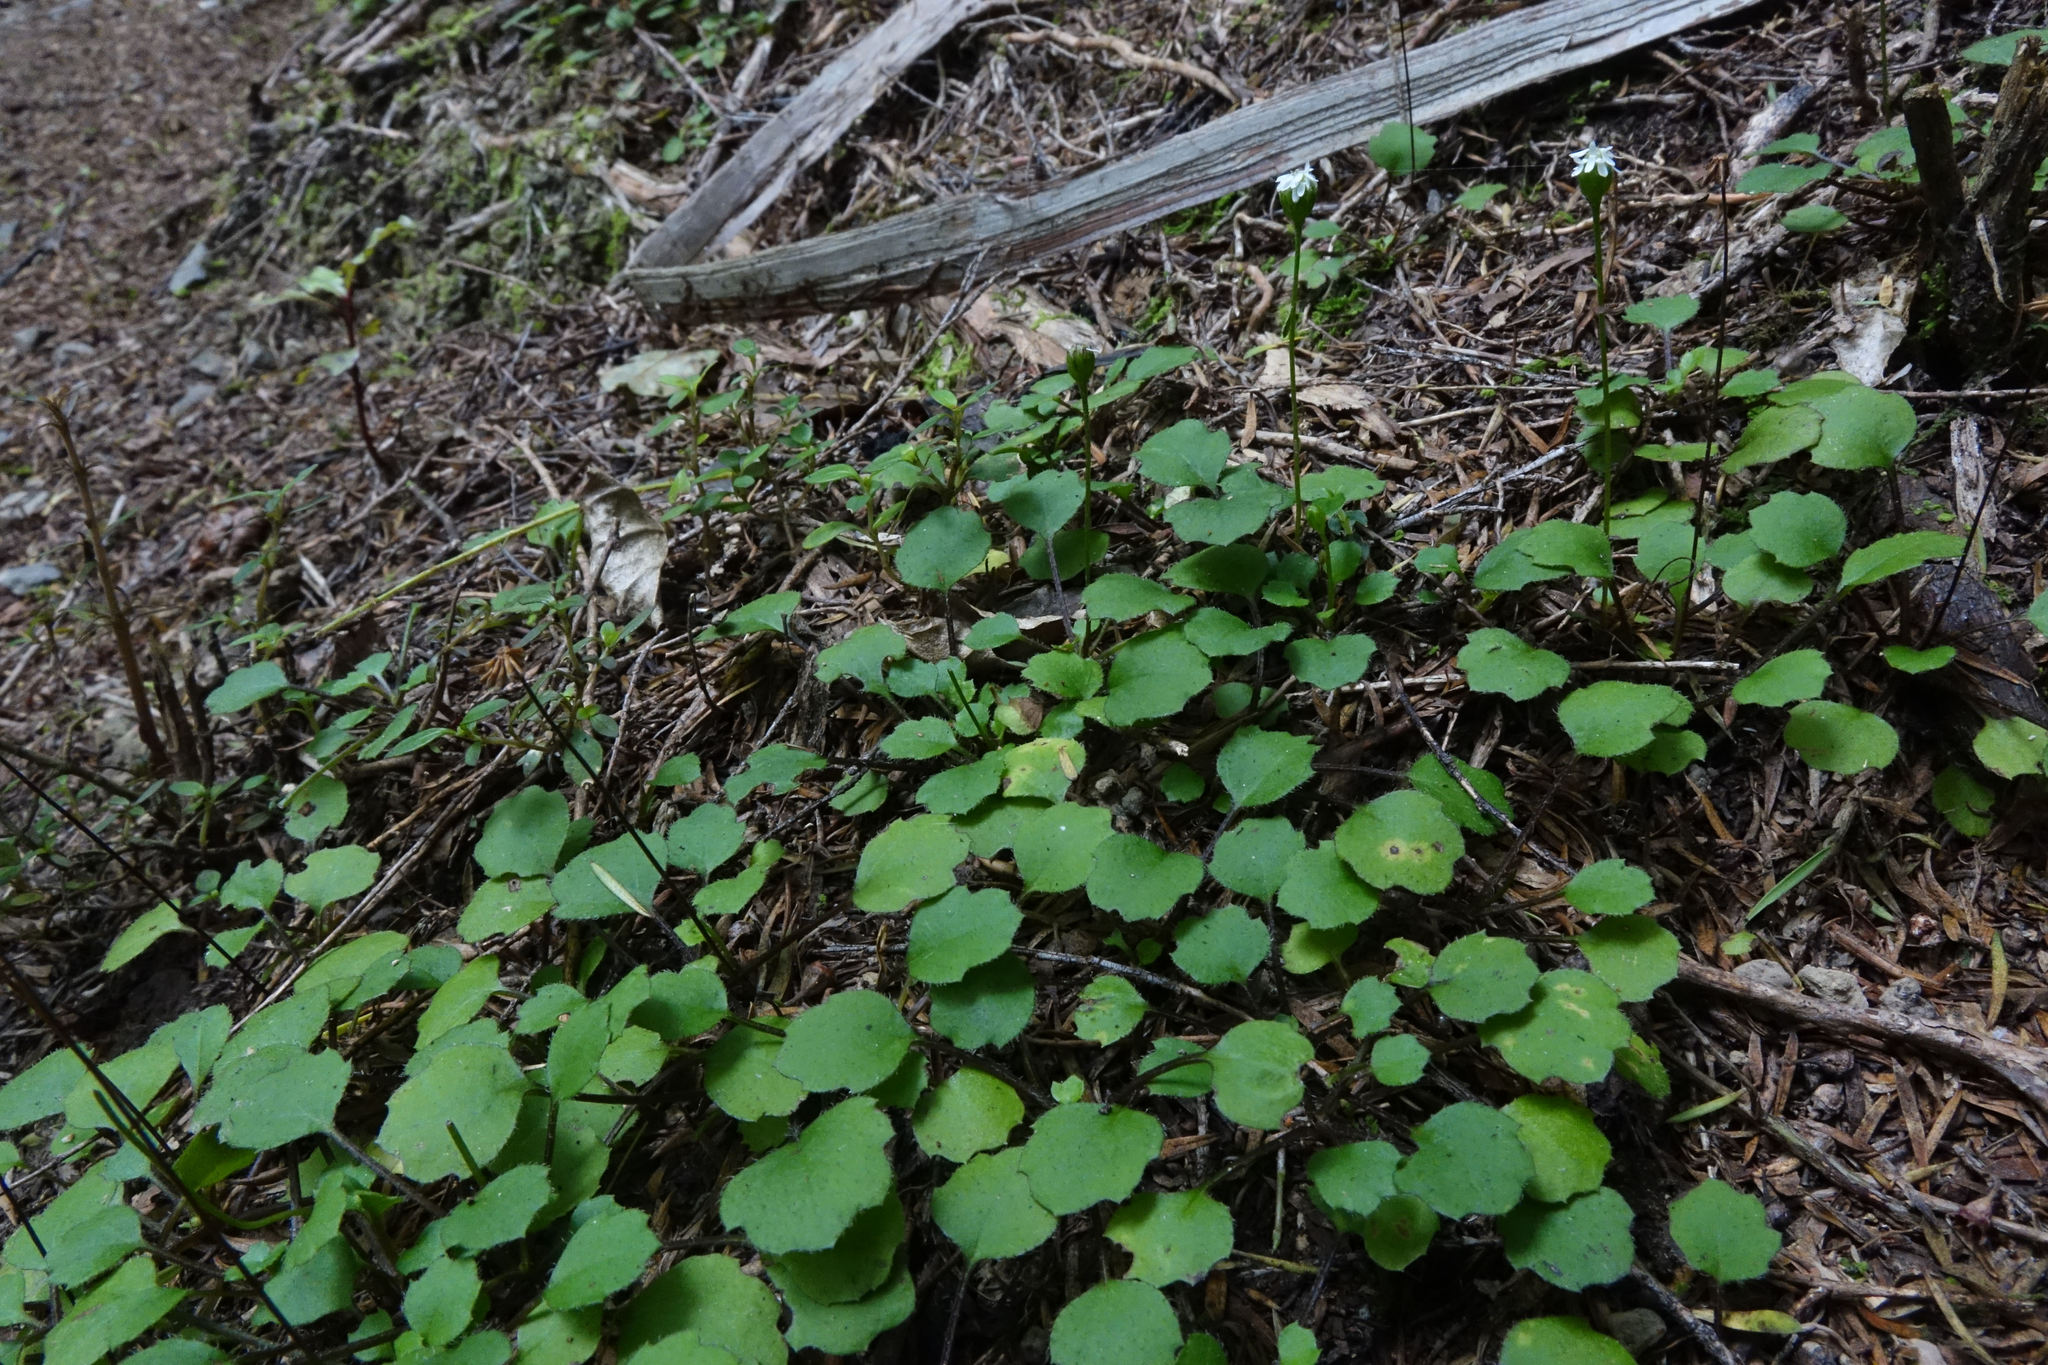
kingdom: Plantae
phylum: Tracheophyta
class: Magnoliopsida
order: Asterales
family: Asteraceae
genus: Lagenophora
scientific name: Lagenophora strangulata
